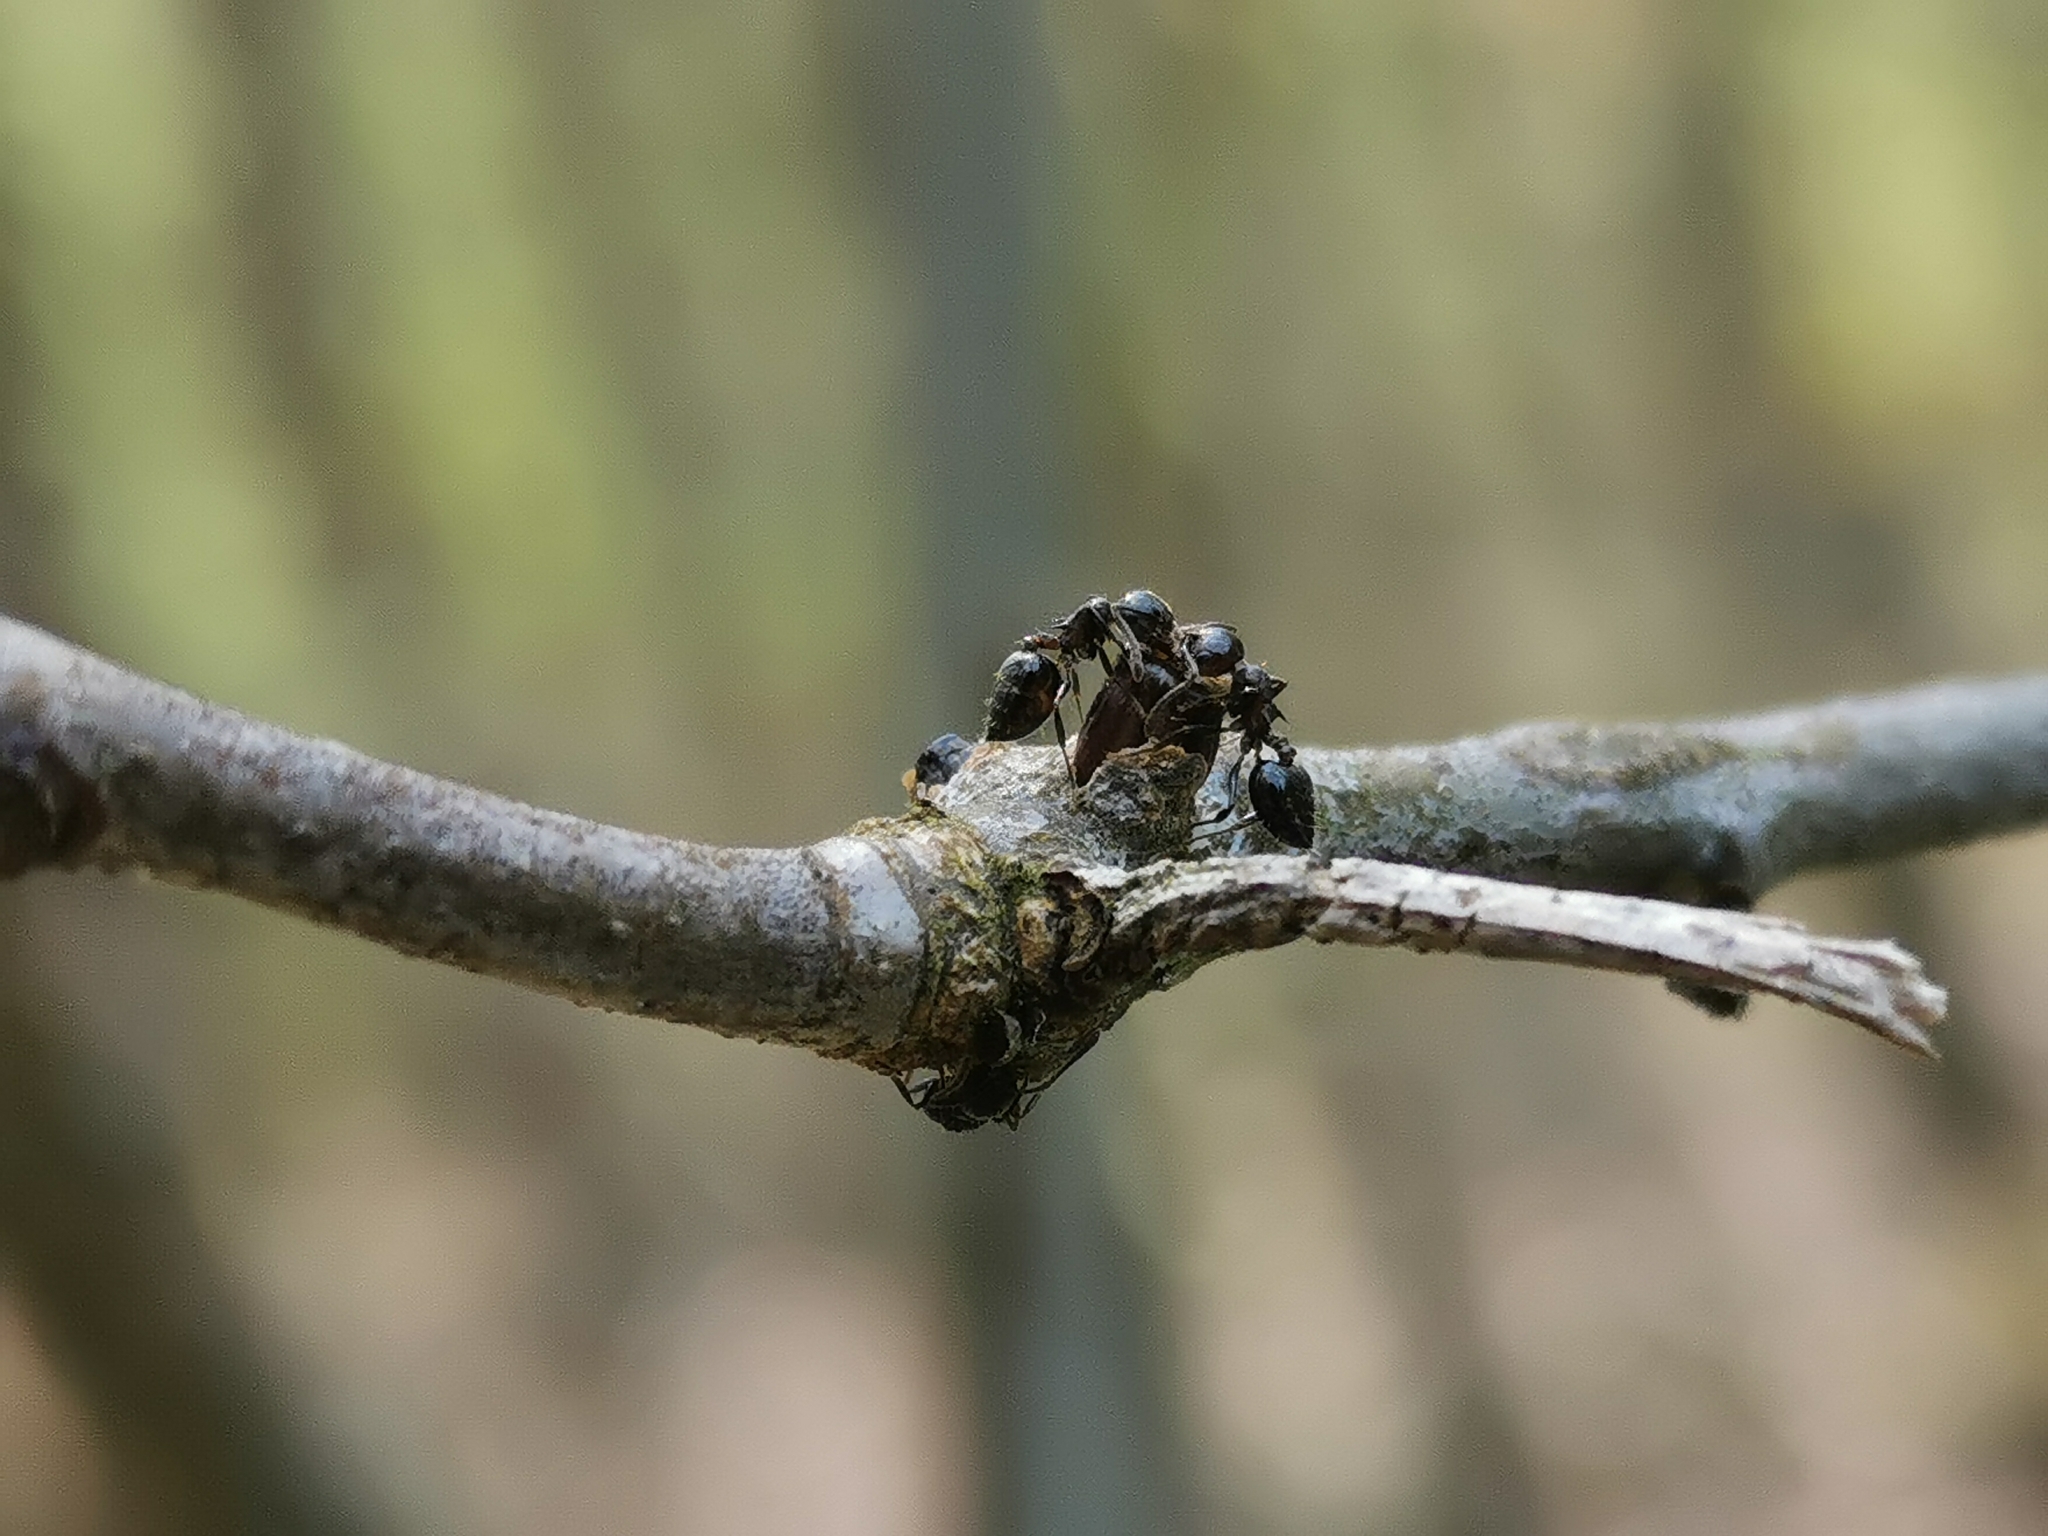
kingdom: Animalia
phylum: Arthropoda
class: Insecta
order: Hymenoptera
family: Cynipidae
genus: Callirhytis
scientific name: Callirhytis
